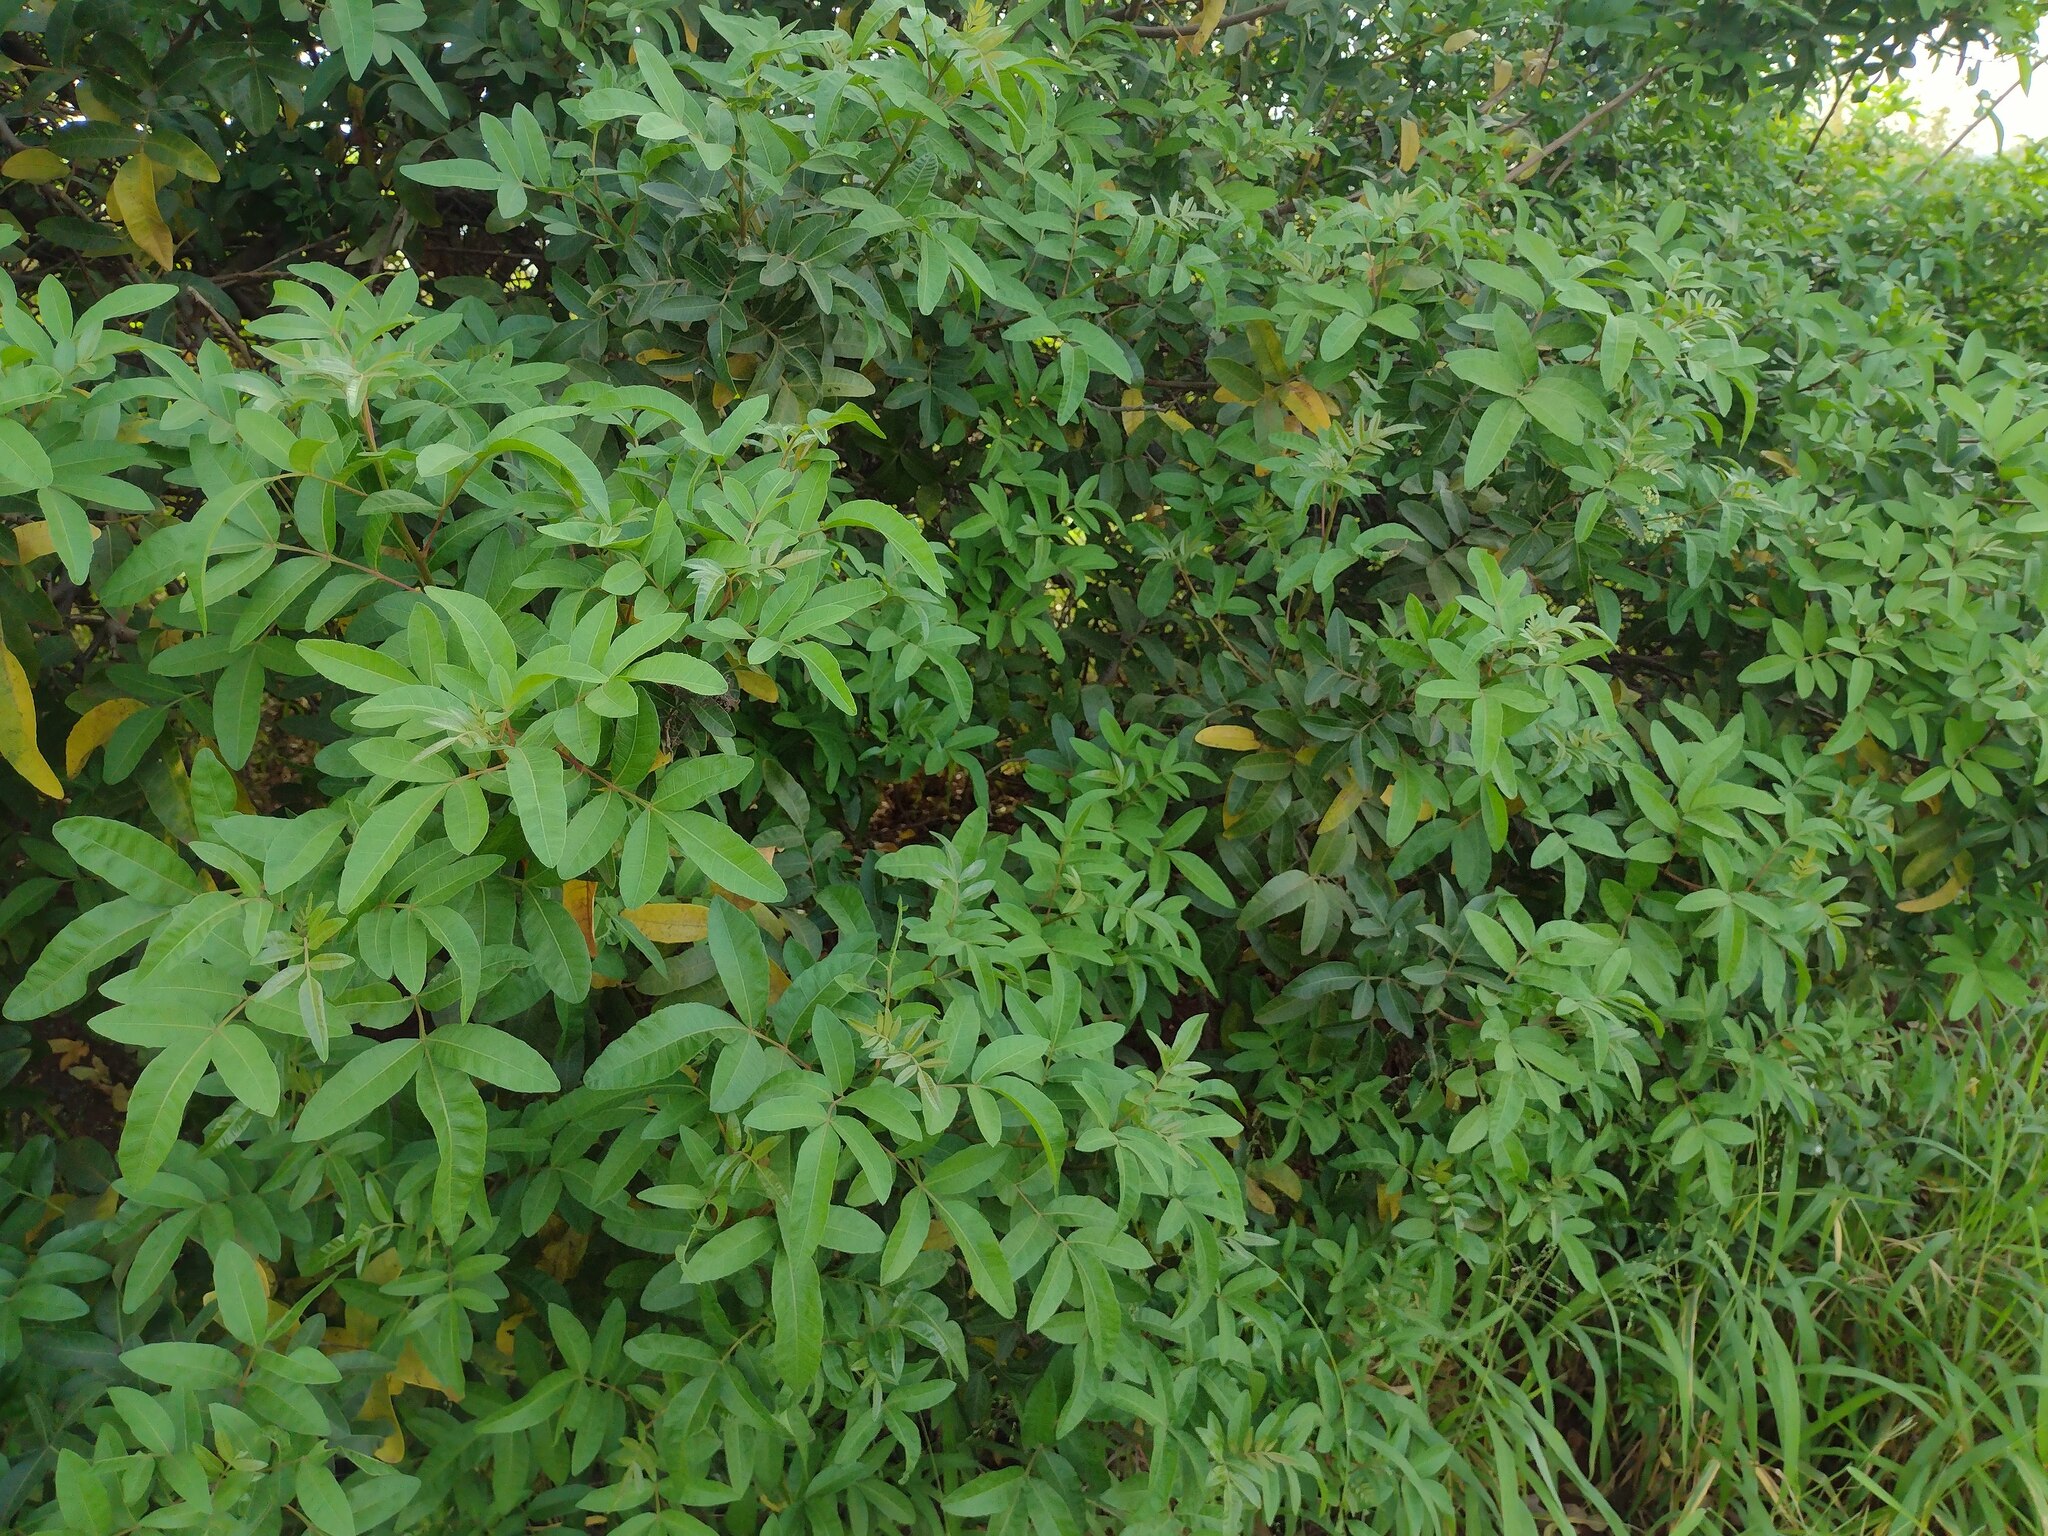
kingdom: Plantae
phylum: Tracheophyta
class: Magnoliopsida
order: Sapindales
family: Anacardiaceae
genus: Schinus
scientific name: Schinus terebinthifolia
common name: Brazilian peppertree
